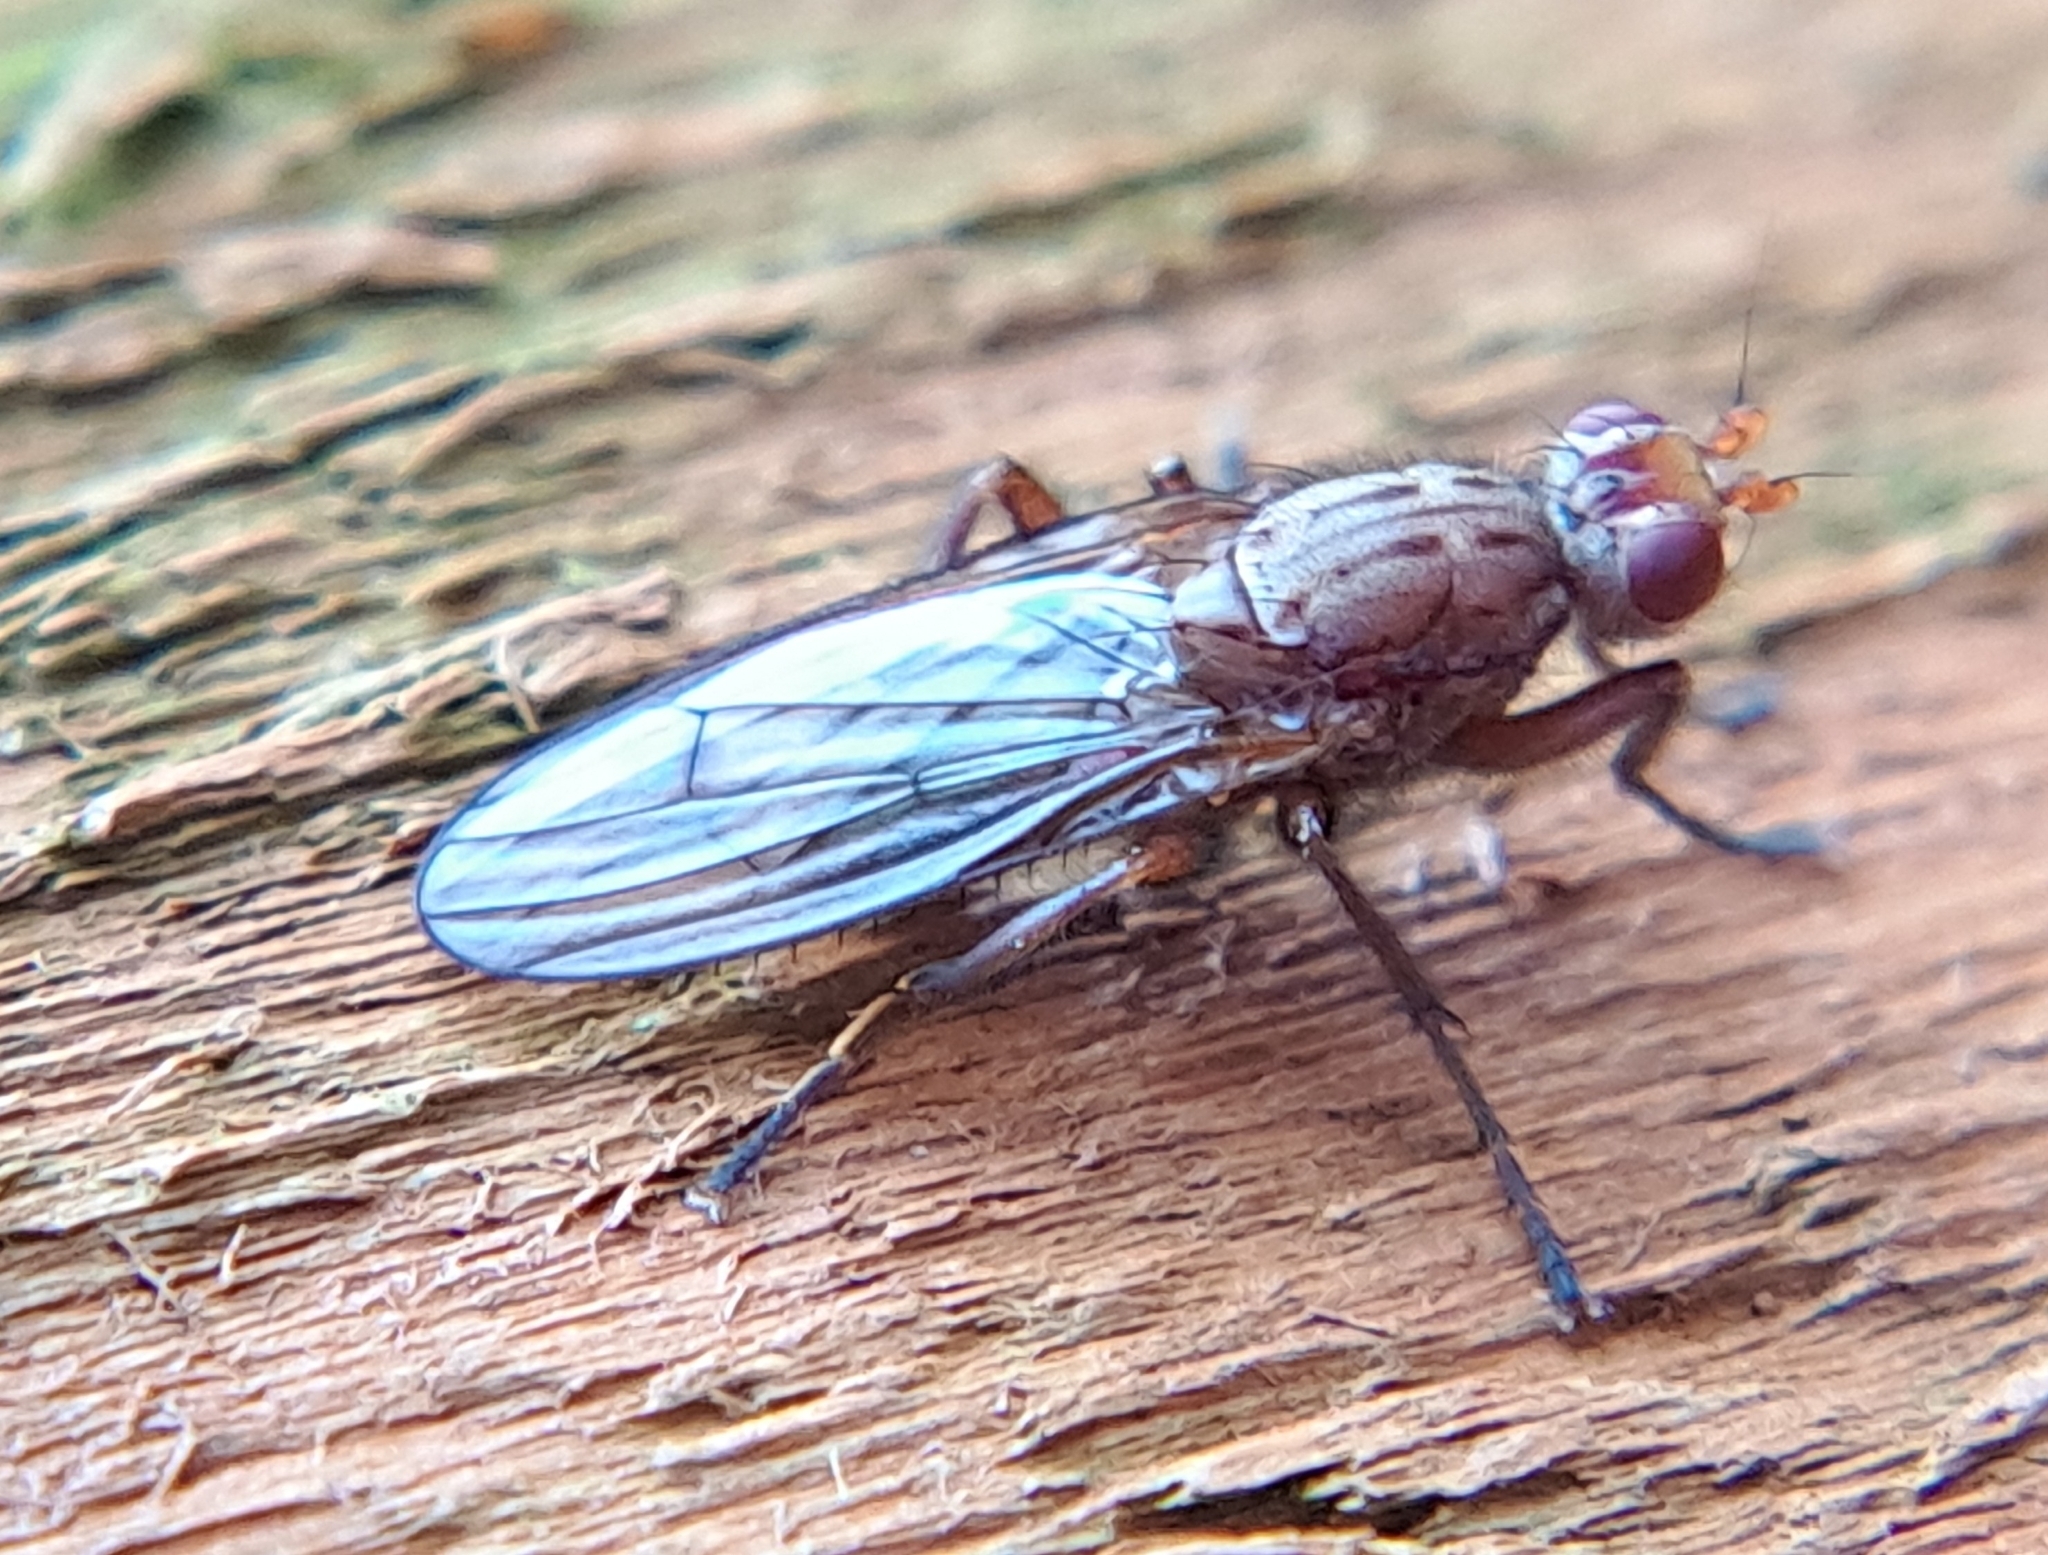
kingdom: Animalia
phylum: Arthropoda
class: Insecta
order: Diptera
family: Heleomyzidae
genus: Scoliocentra
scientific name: Scoliocentra tincta
